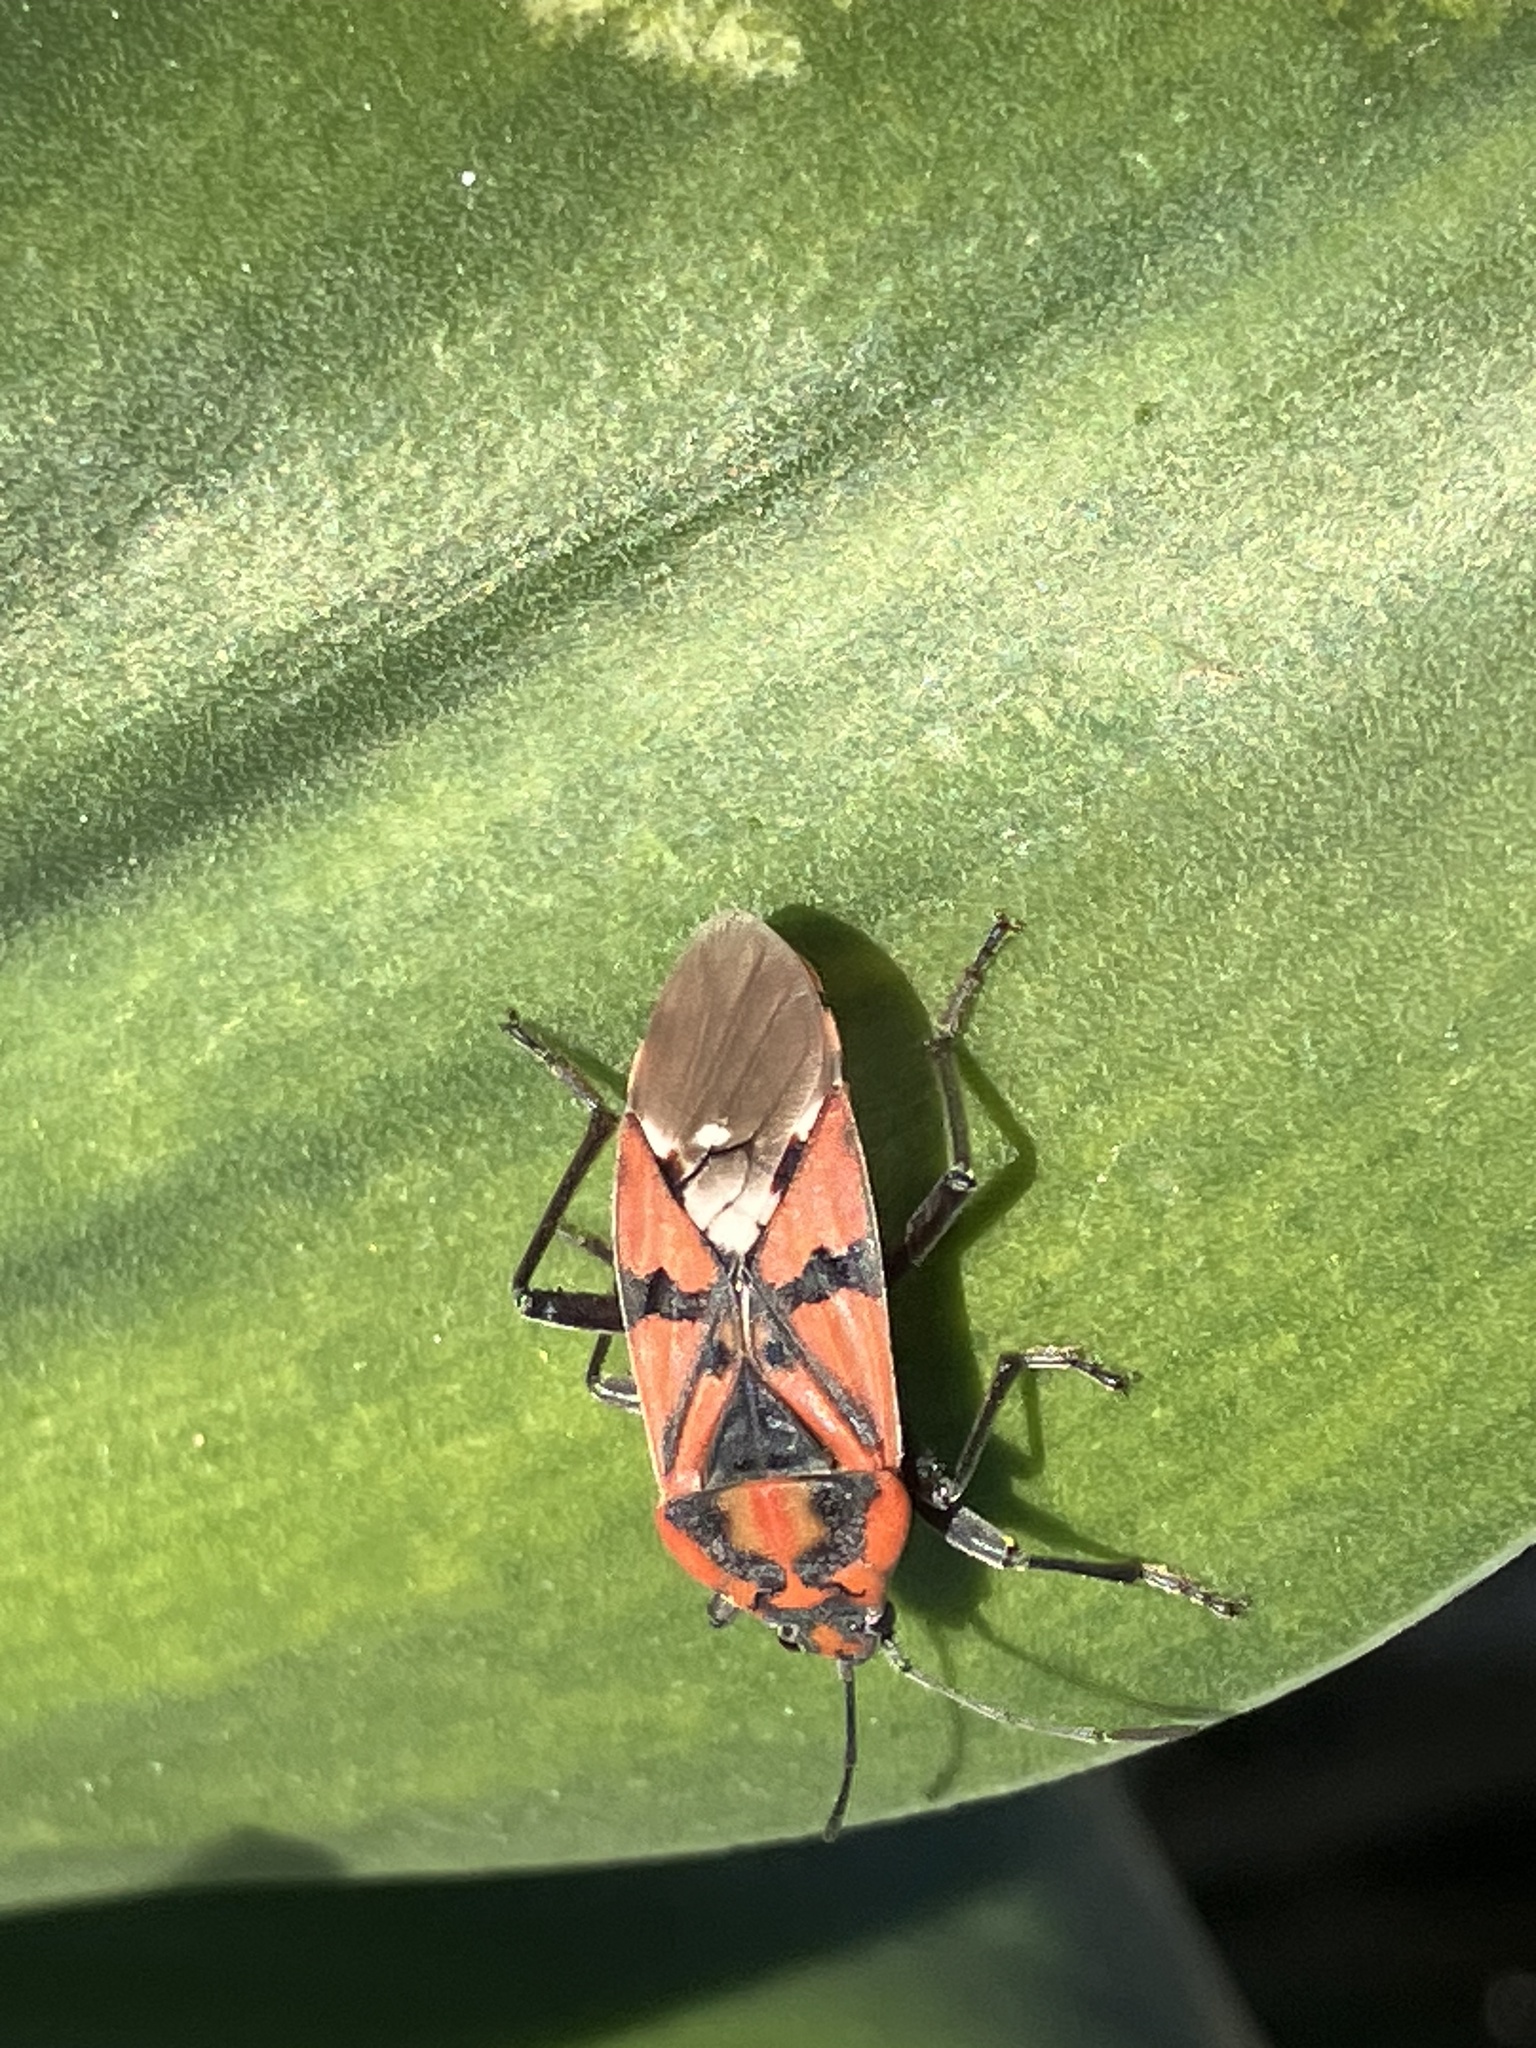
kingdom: Animalia
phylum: Arthropoda
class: Insecta
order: Hemiptera
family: Lygaeidae
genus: Spilostethus
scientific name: Spilostethus pandurus
